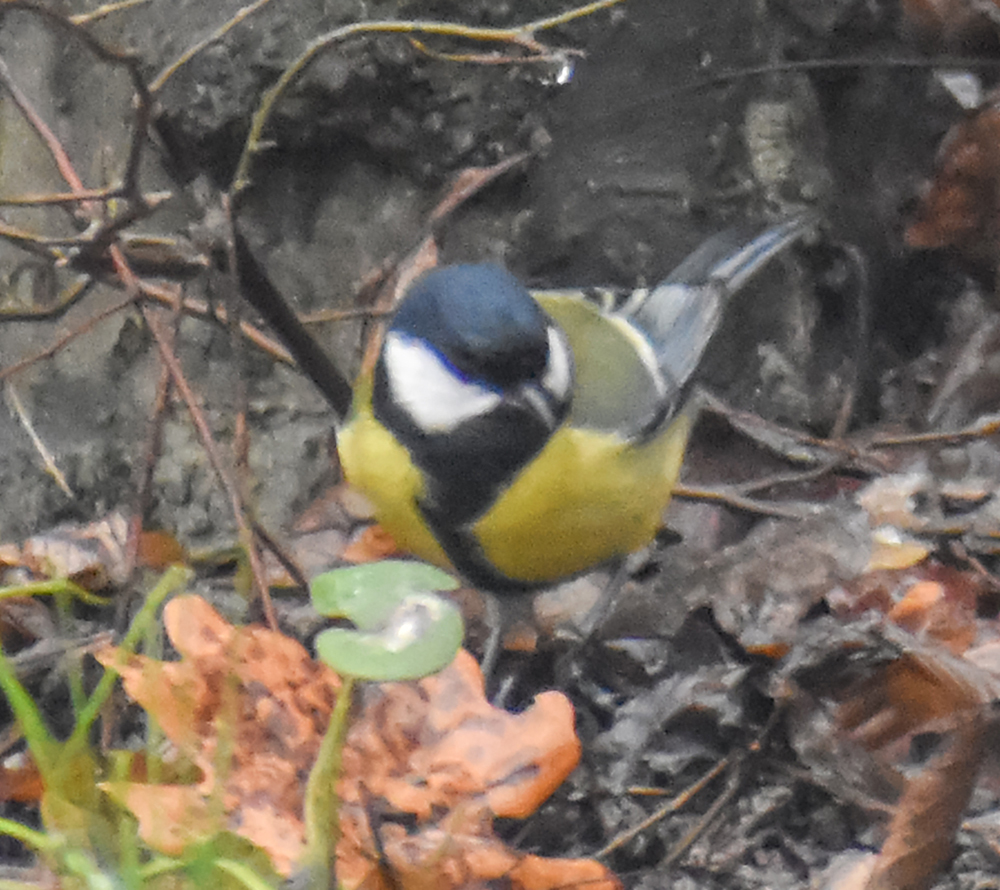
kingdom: Animalia
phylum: Chordata
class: Aves
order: Passeriformes
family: Paridae
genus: Parus
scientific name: Parus major
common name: Great tit
